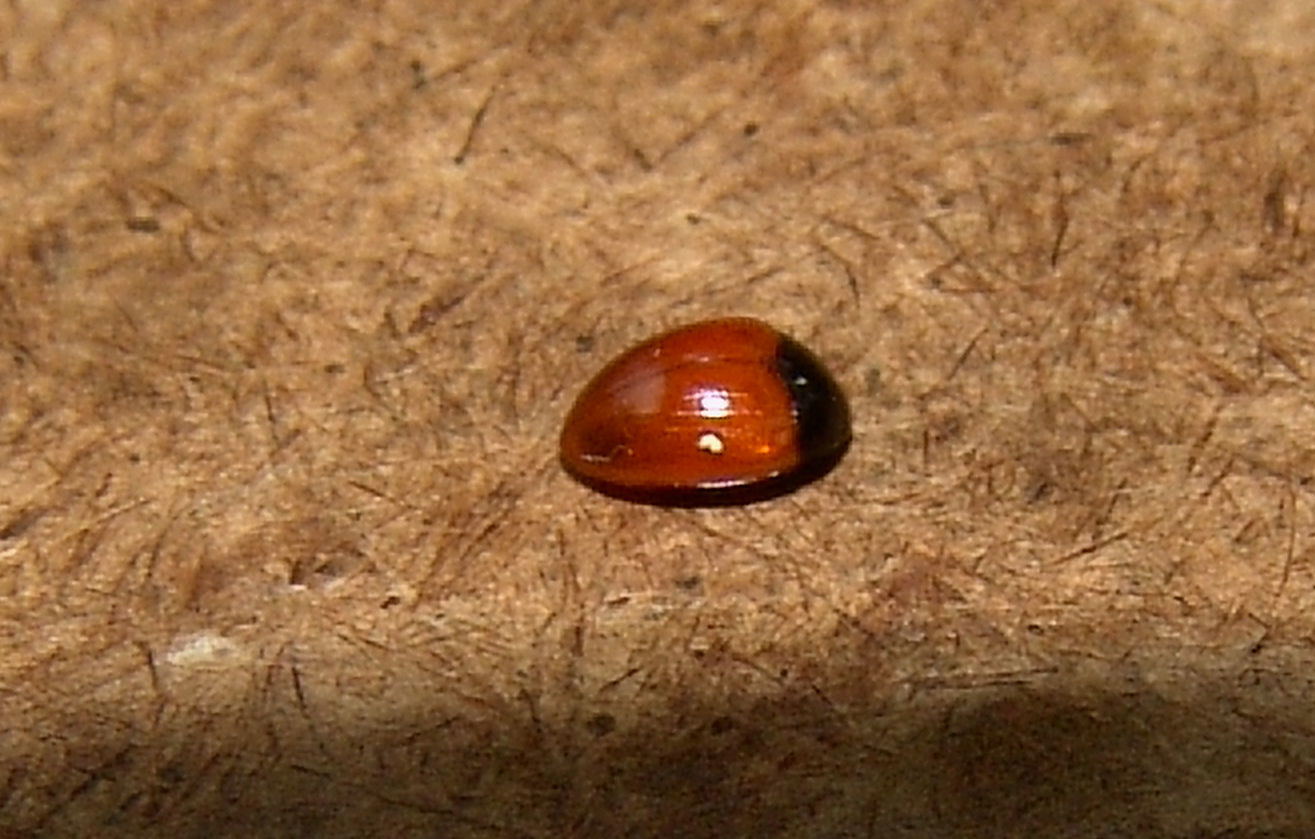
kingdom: Animalia
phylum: Arthropoda
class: Insecta
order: Coleoptera
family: Erotylidae
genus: Tritoma
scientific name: Tritoma sanguinipennis
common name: Red-winged tritoma
